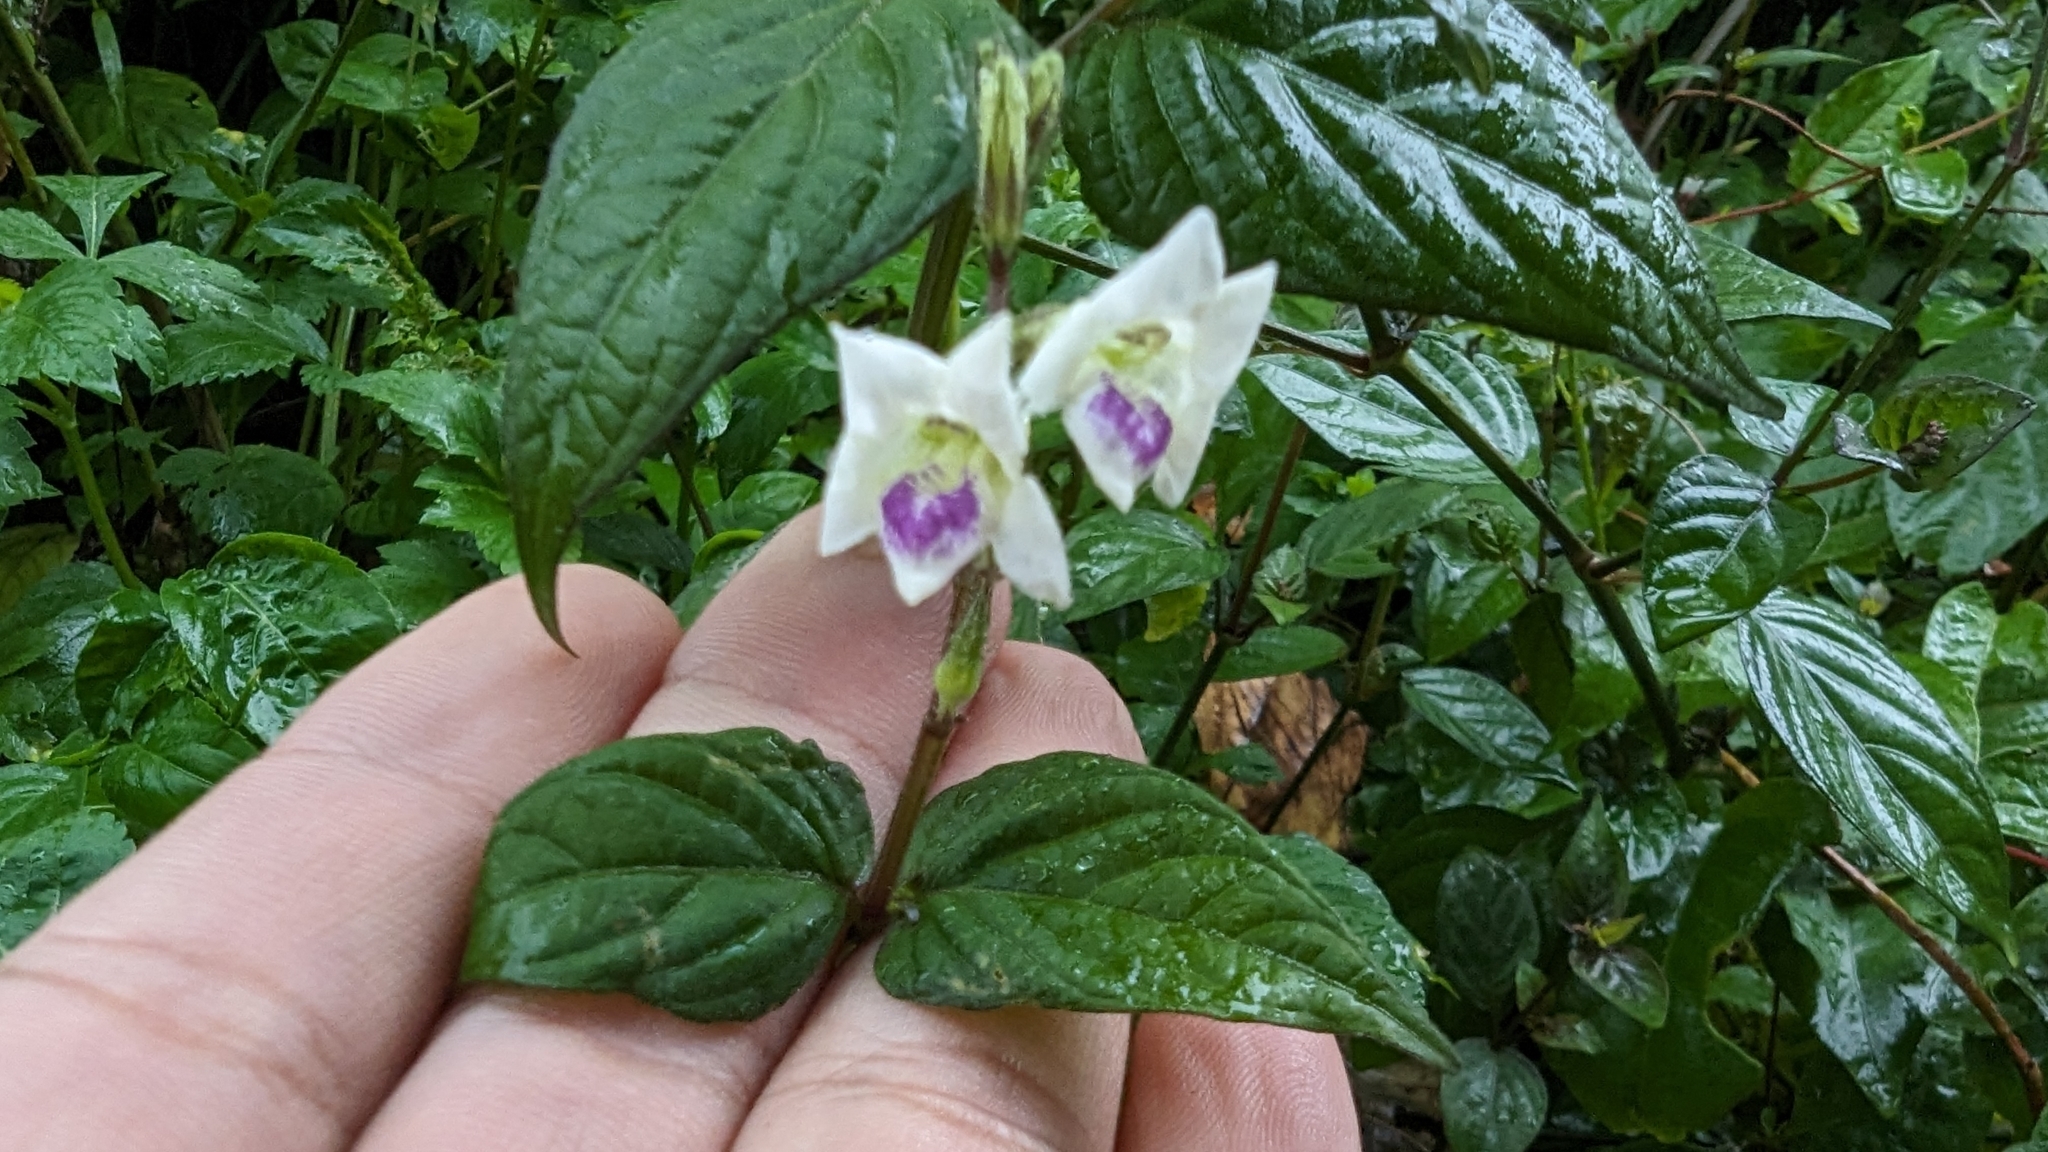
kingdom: Plantae
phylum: Tracheophyta
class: Magnoliopsida
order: Lamiales
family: Acanthaceae
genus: Asystasia
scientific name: Asystasia intrusa
